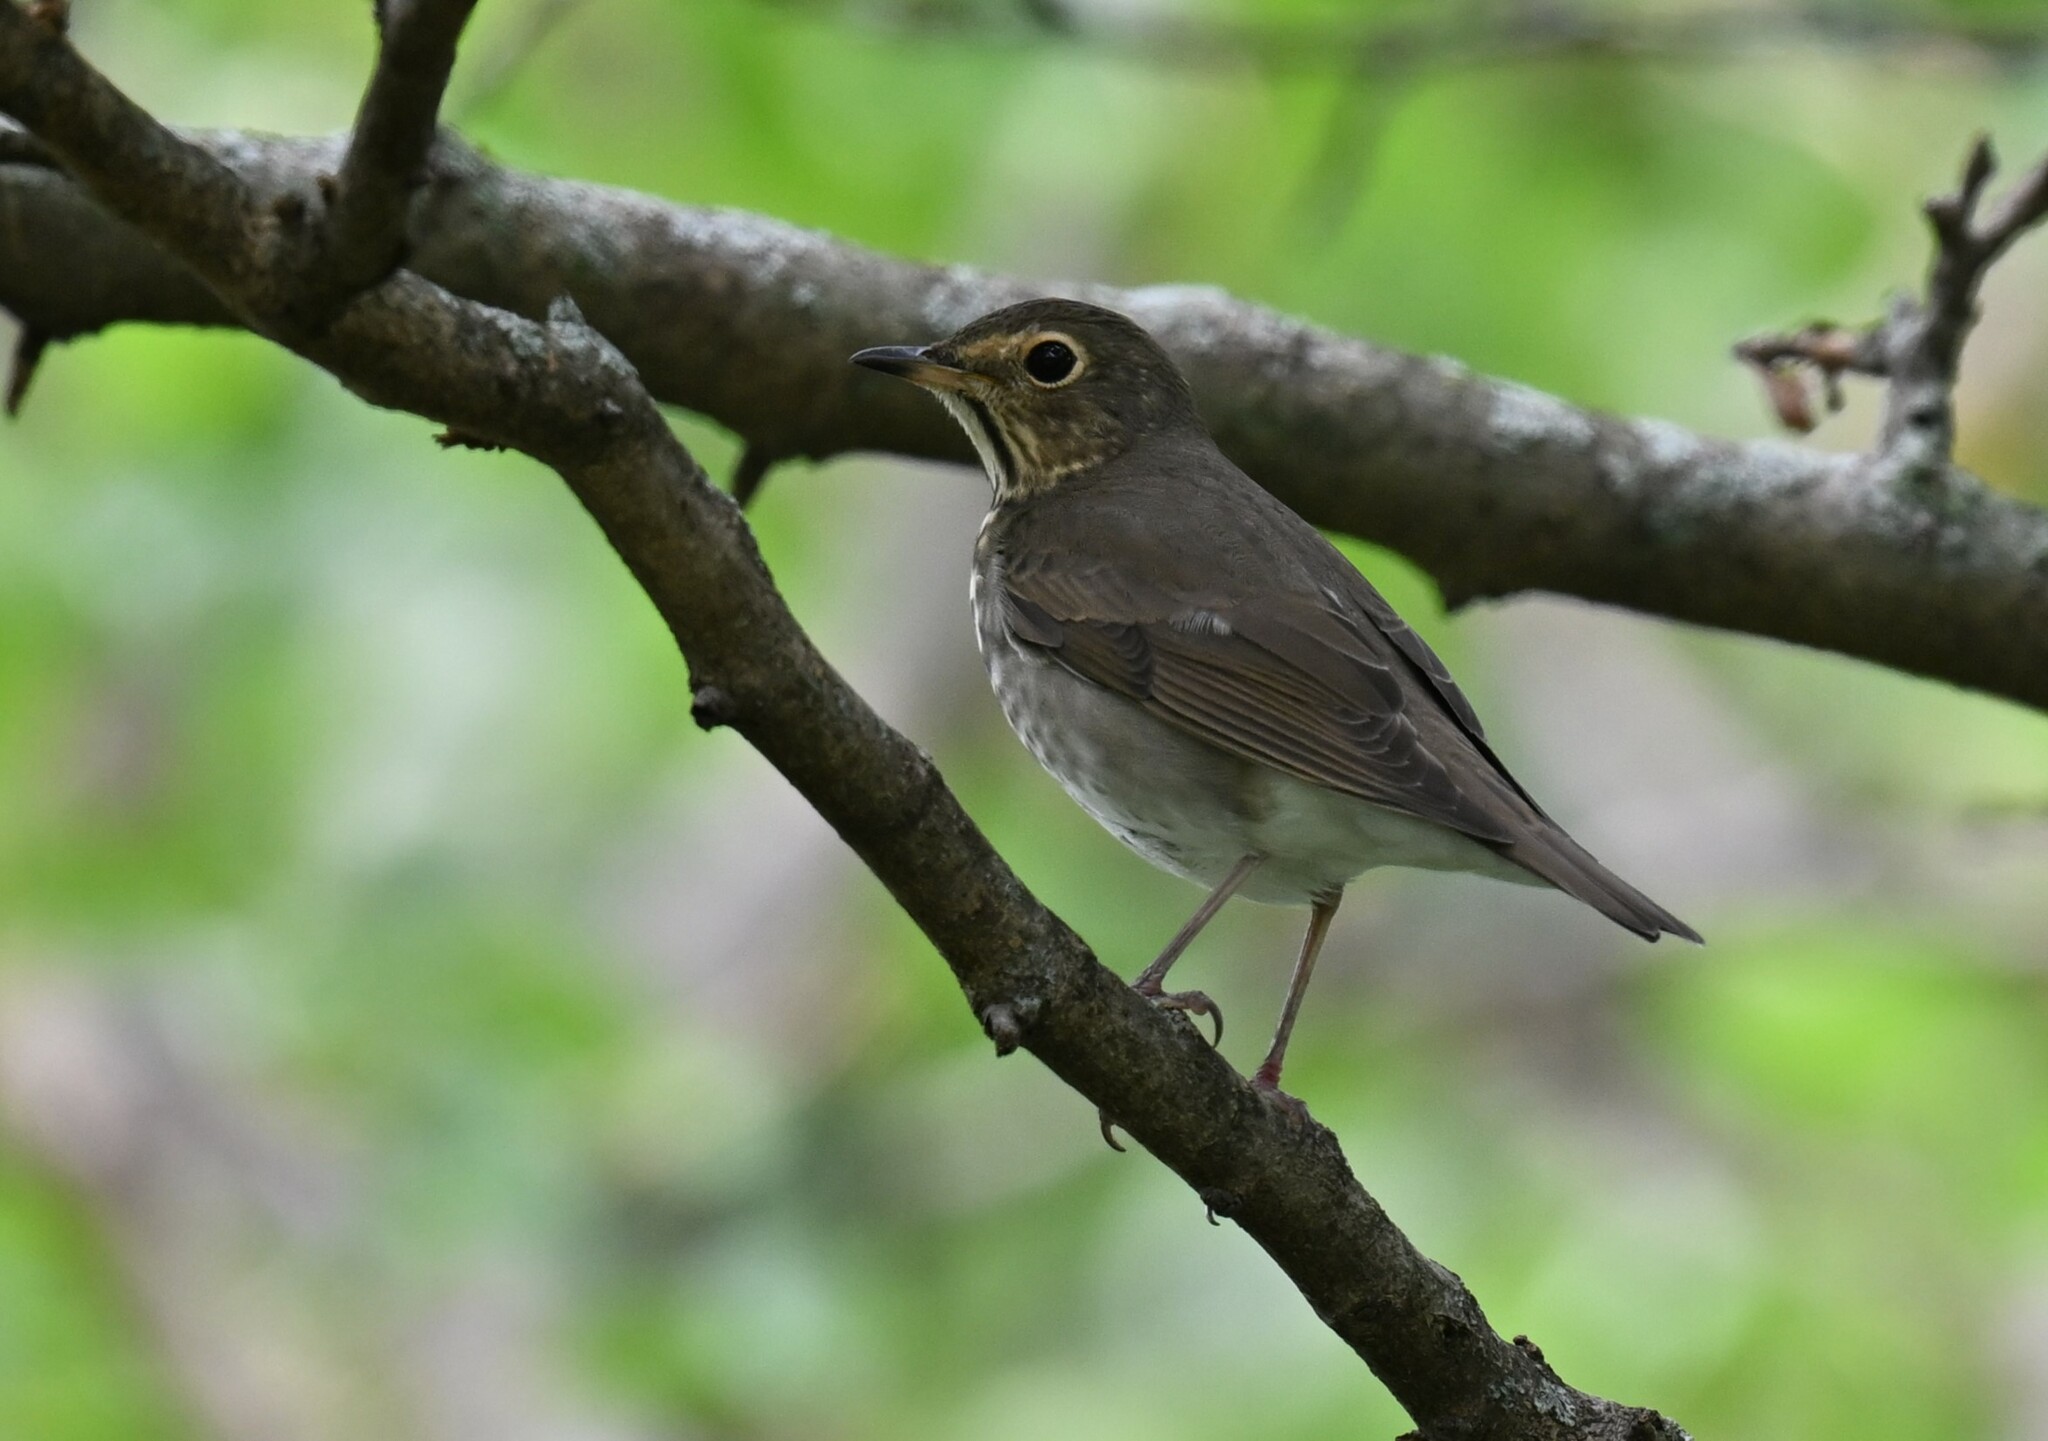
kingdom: Animalia
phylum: Chordata
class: Aves
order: Passeriformes
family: Turdidae
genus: Catharus
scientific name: Catharus ustulatus
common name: Swainson's thrush
